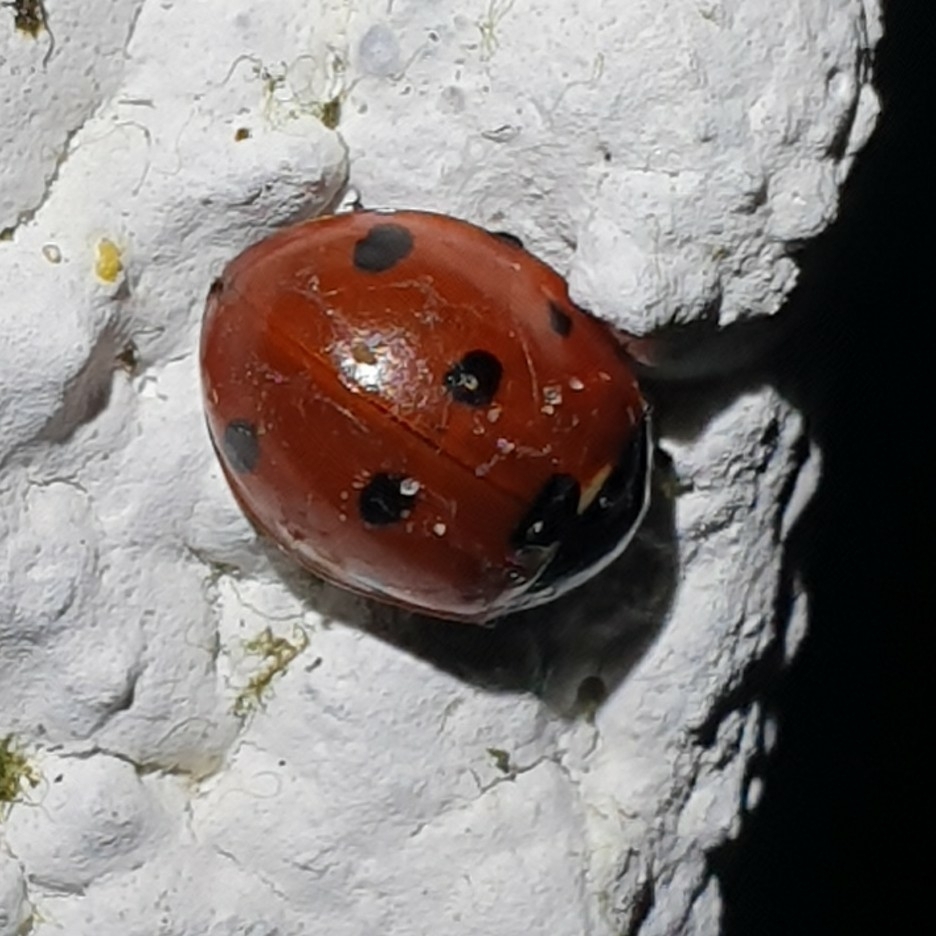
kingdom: Animalia
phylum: Arthropoda
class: Insecta
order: Coleoptera
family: Coccinellidae
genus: Coccinella
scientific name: Coccinella septempunctata
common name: Sevenspotted lady beetle
